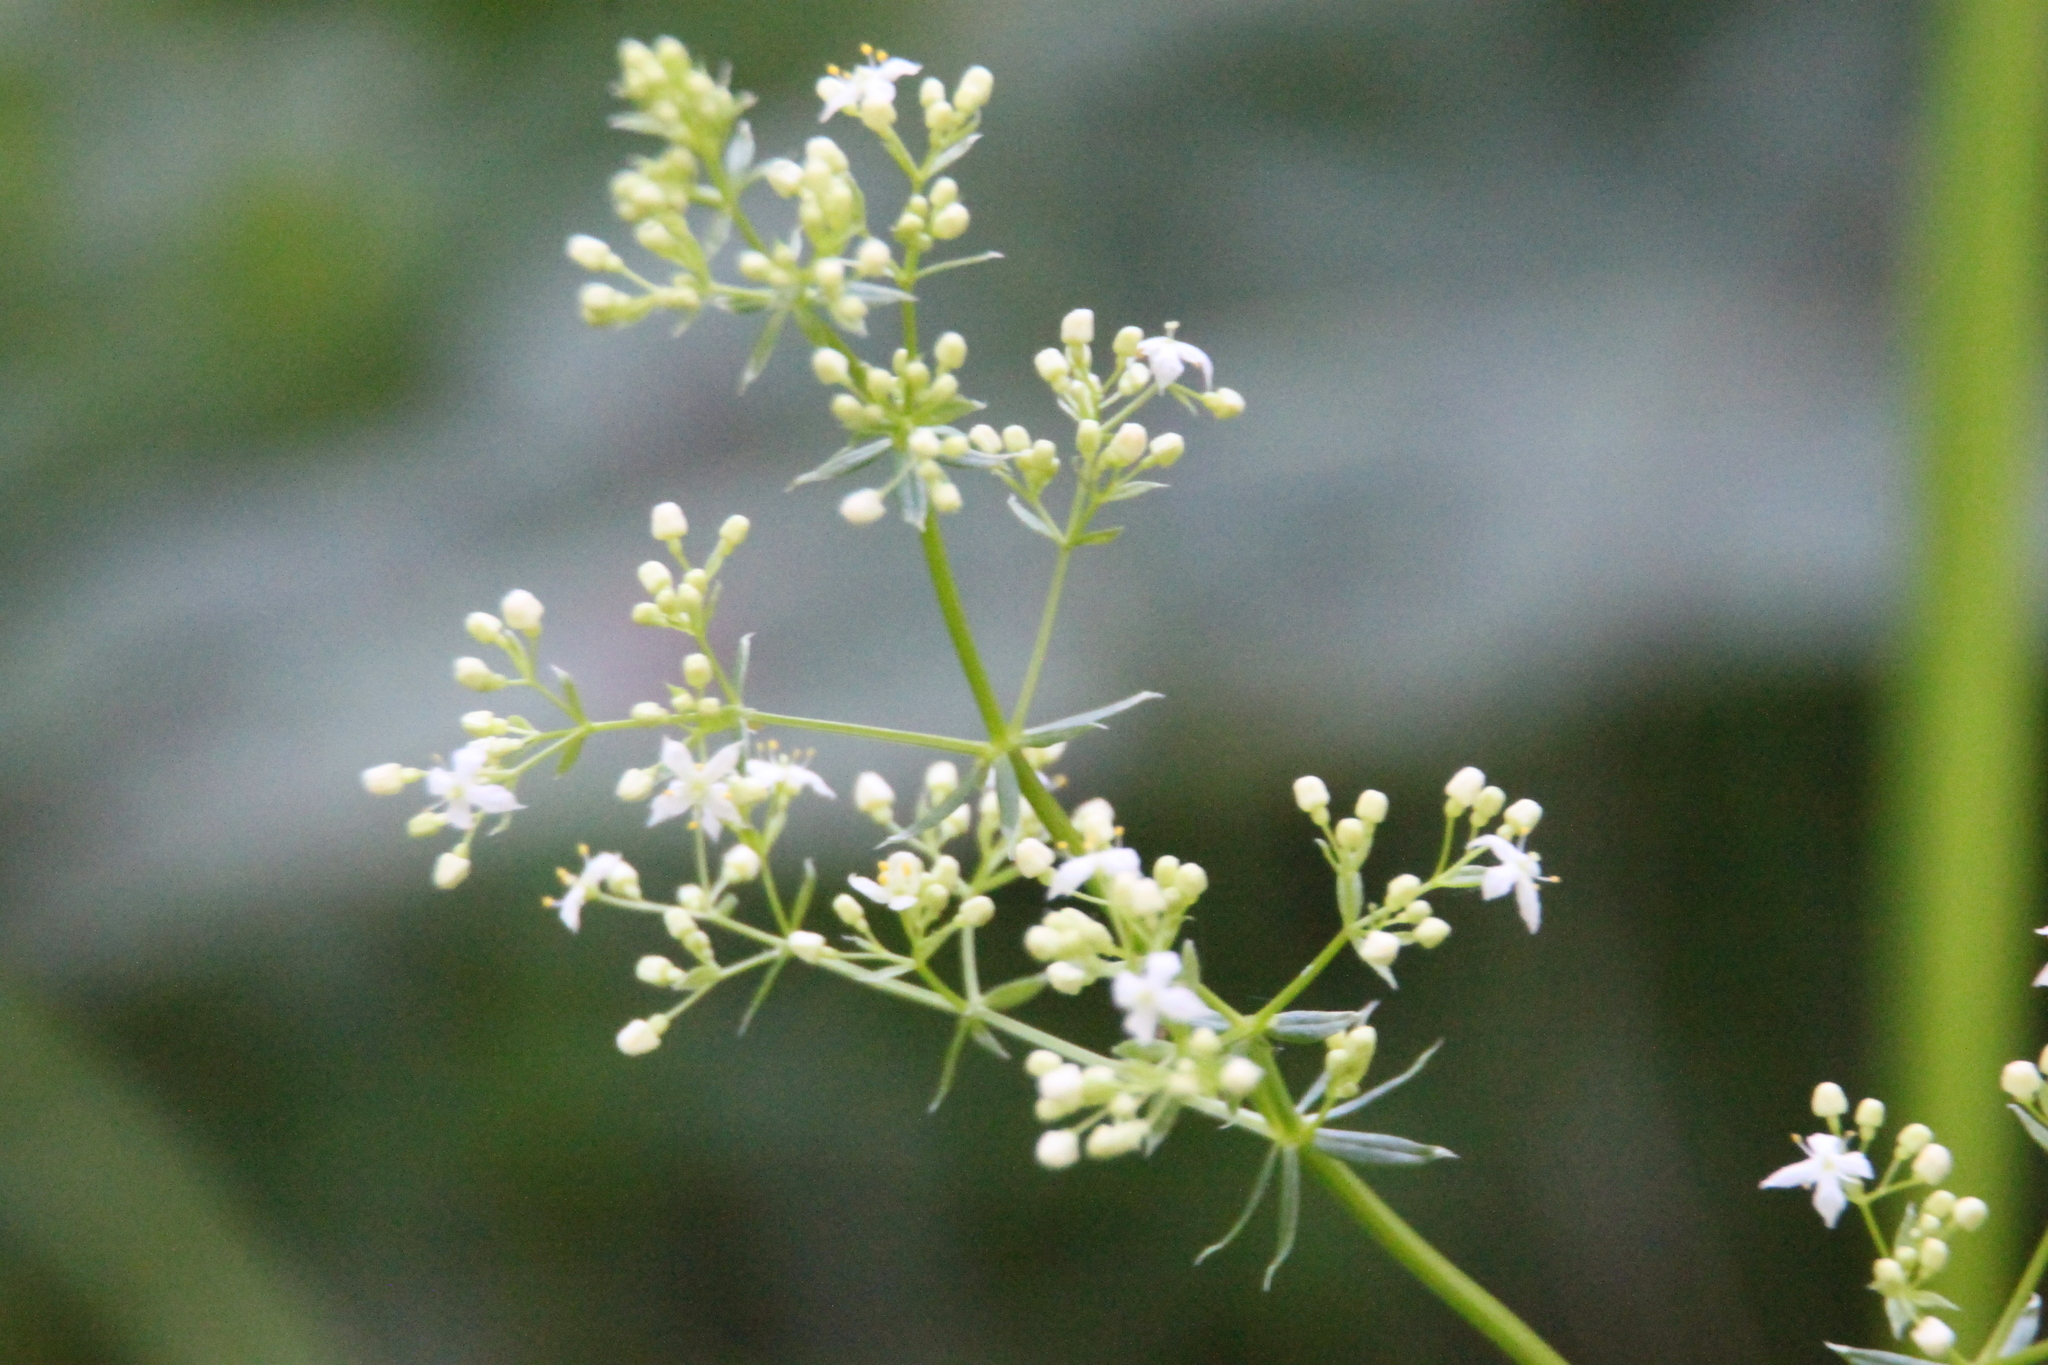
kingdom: Plantae
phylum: Tracheophyta
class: Magnoliopsida
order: Gentianales
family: Rubiaceae
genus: Galium
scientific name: Galium mollugo
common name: Hedge bedstraw
